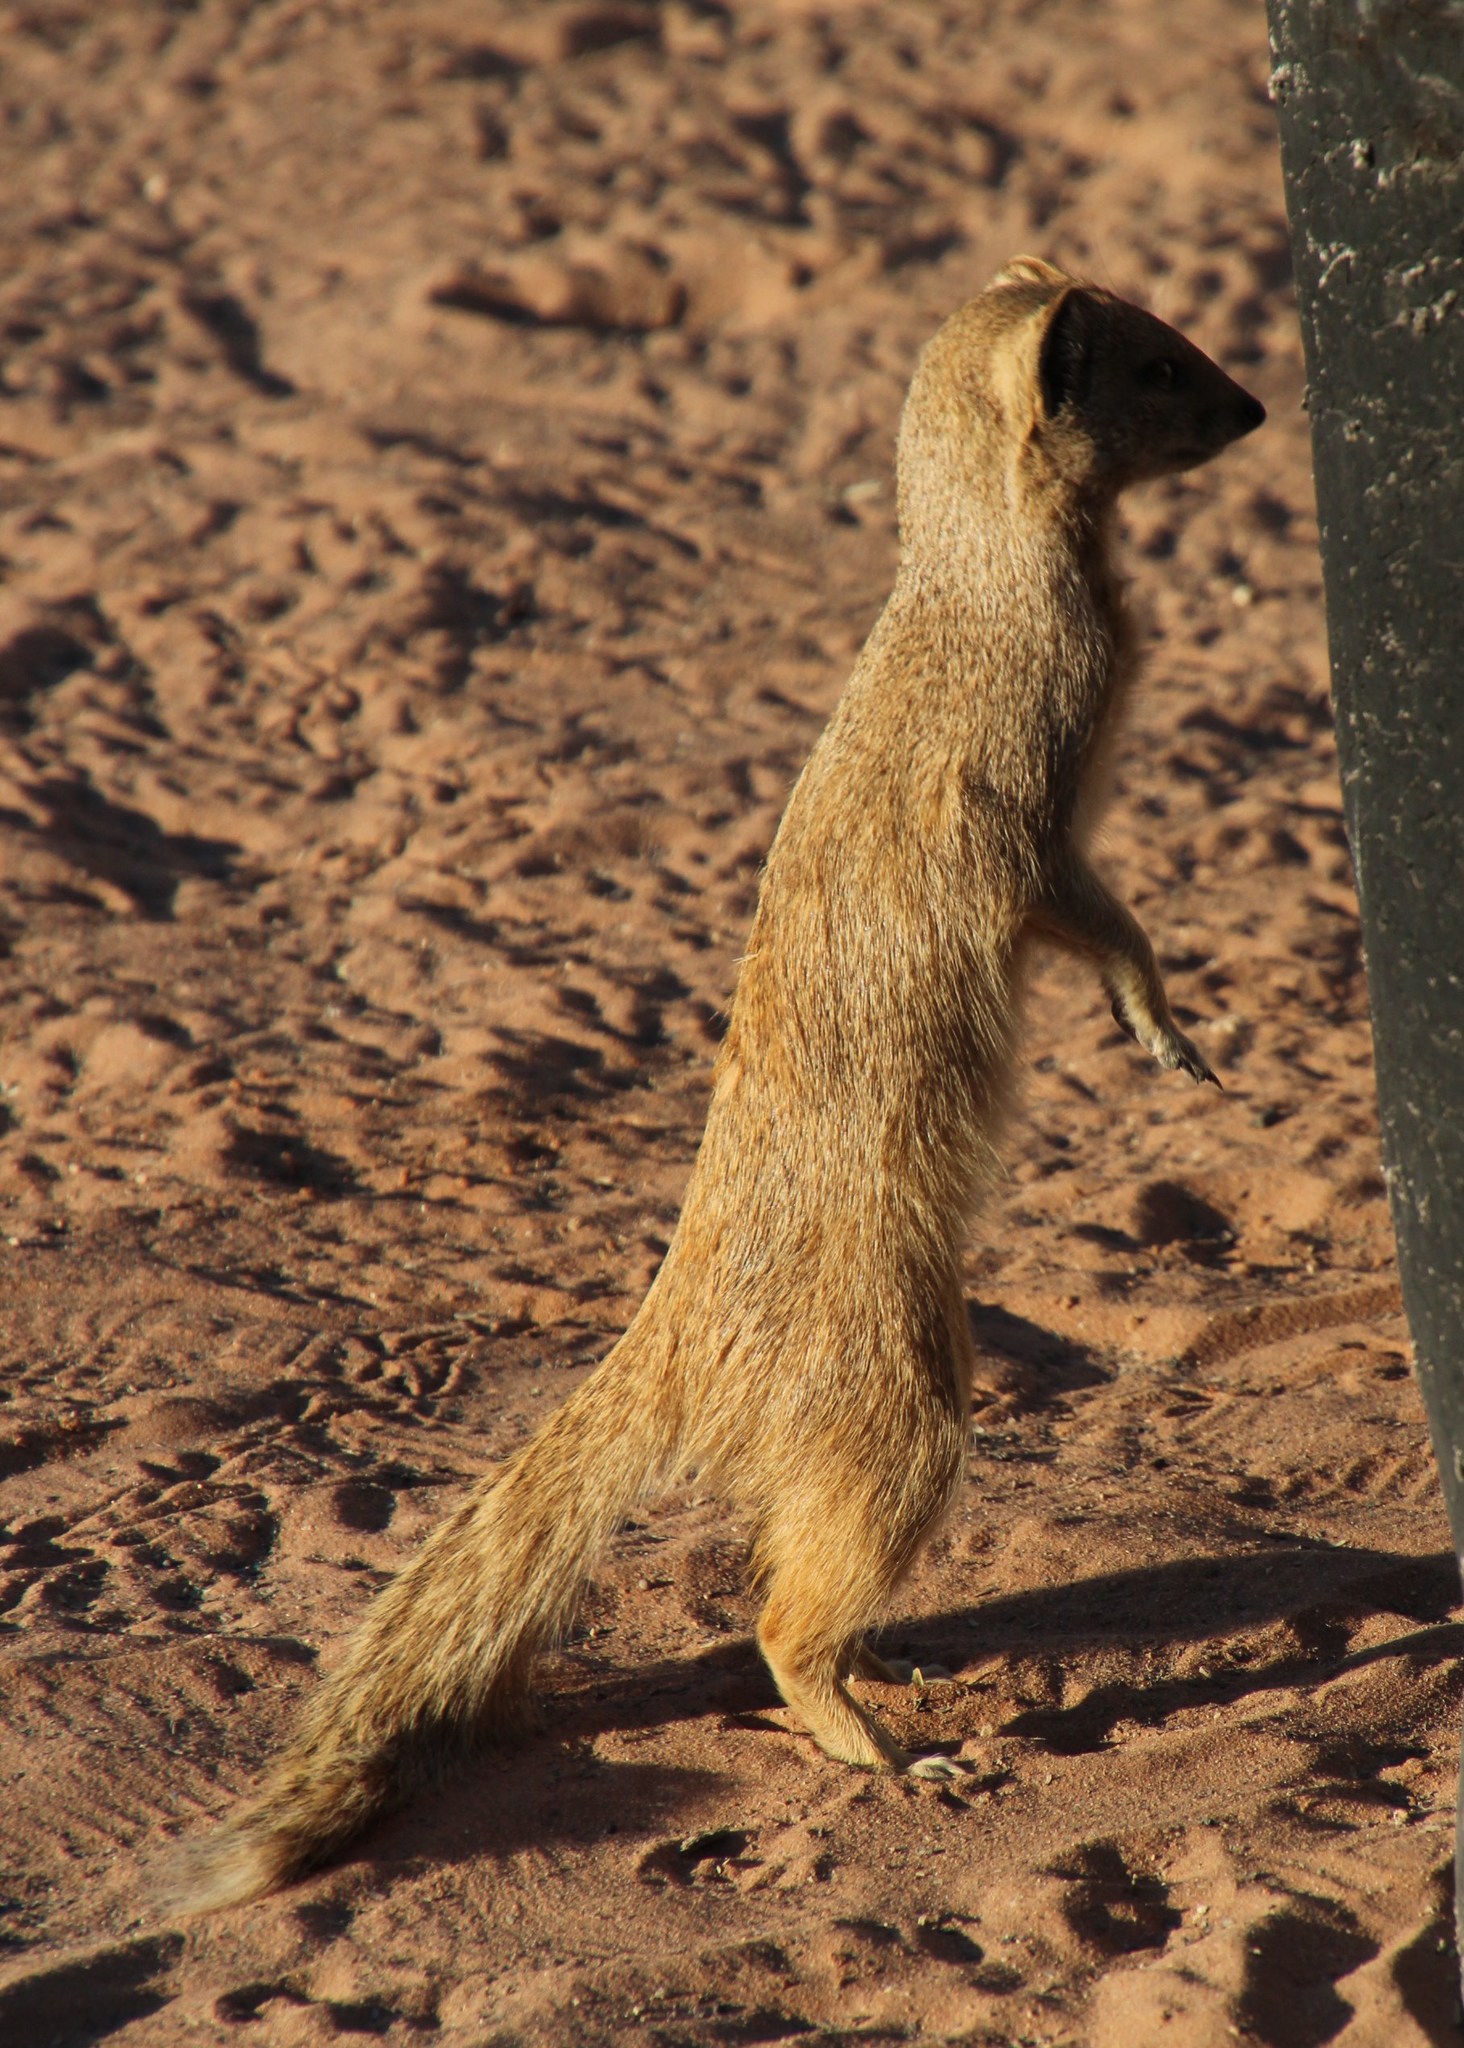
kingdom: Animalia
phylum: Chordata
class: Mammalia
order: Carnivora
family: Herpestidae
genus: Cynictis
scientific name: Cynictis penicillata
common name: Yellow mongoose
